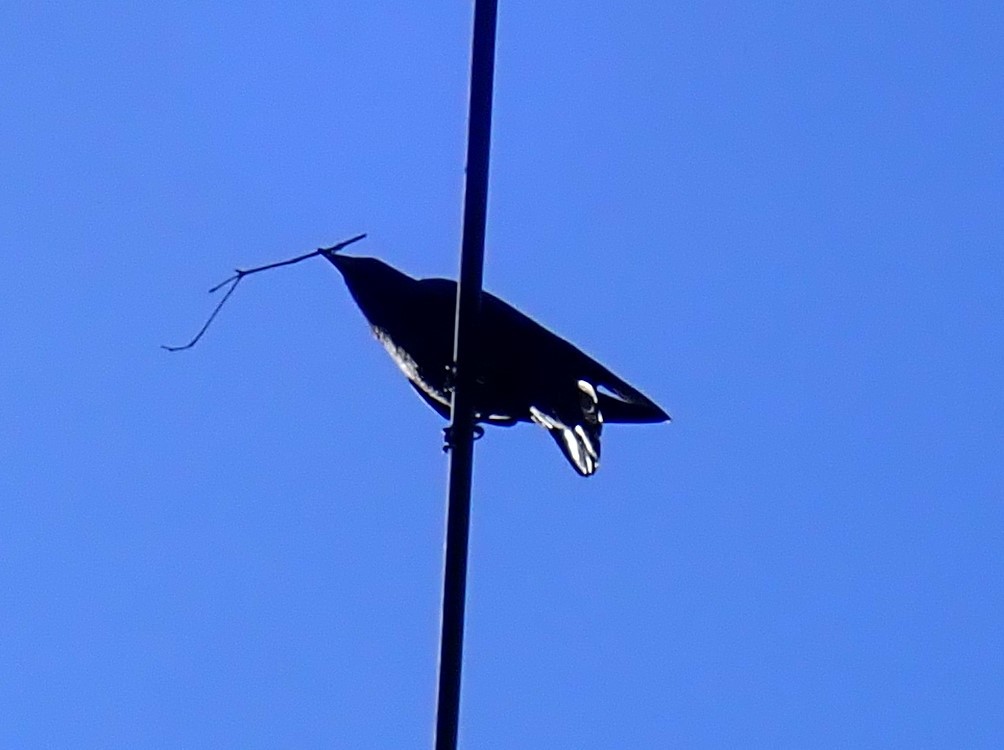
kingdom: Animalia
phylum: Chordata
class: Aves
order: Passeriformes
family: Corvidae
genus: Corvus
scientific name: Corvus brachyrhynchos
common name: American crow
